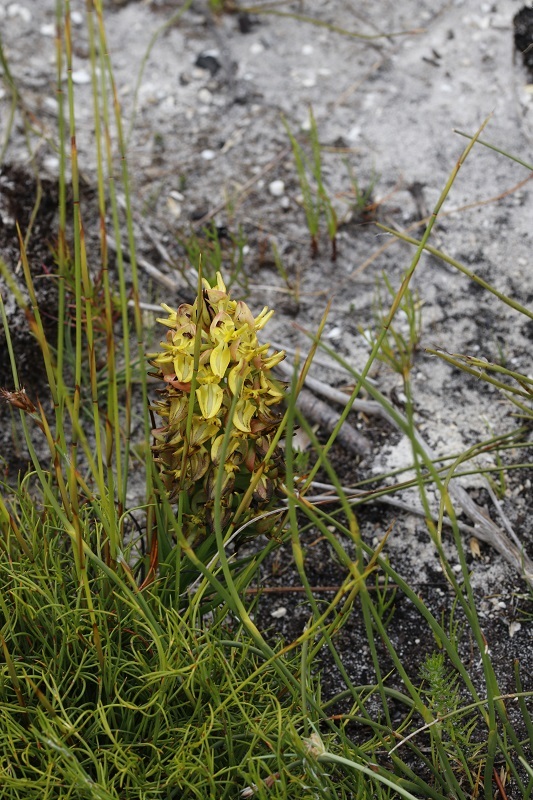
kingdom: Plantae
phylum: Tracheophyta
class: Liliopsida
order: Asparagales
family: Orchidaceae
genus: Ceratandra
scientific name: Ceratandra atrata
